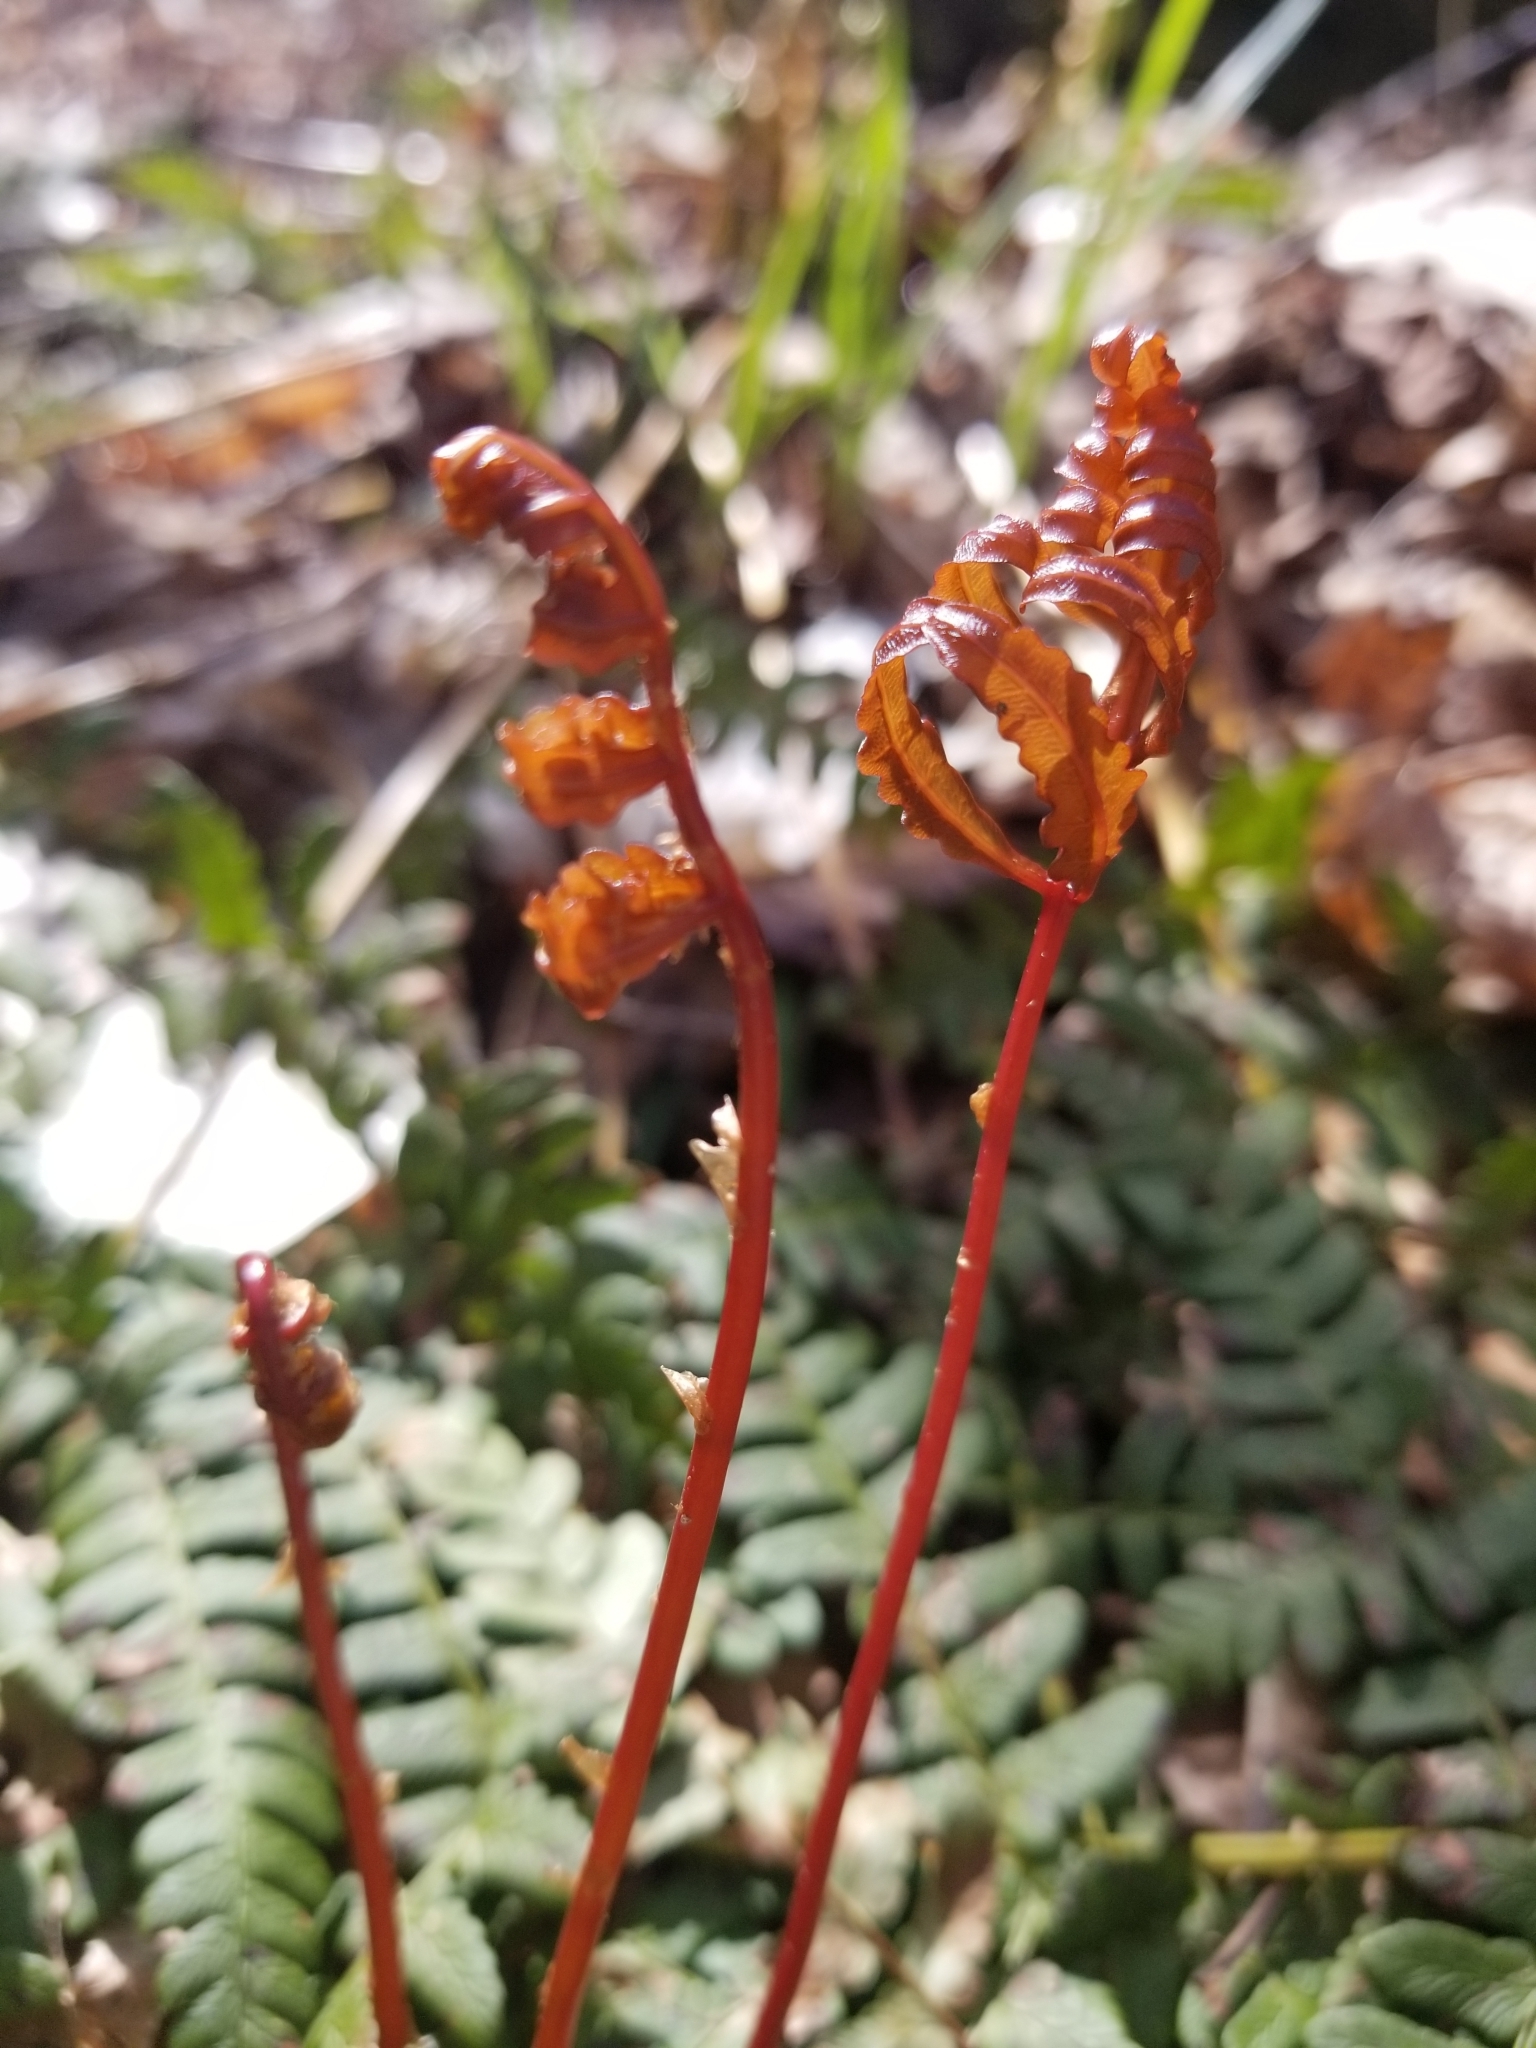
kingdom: Plantae
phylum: Tracheophyta
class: Polypodiopsida
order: Polypodiales
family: Onocleaceae
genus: Onoclea
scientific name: Onoclea sensibilis
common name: Sensitive fern
